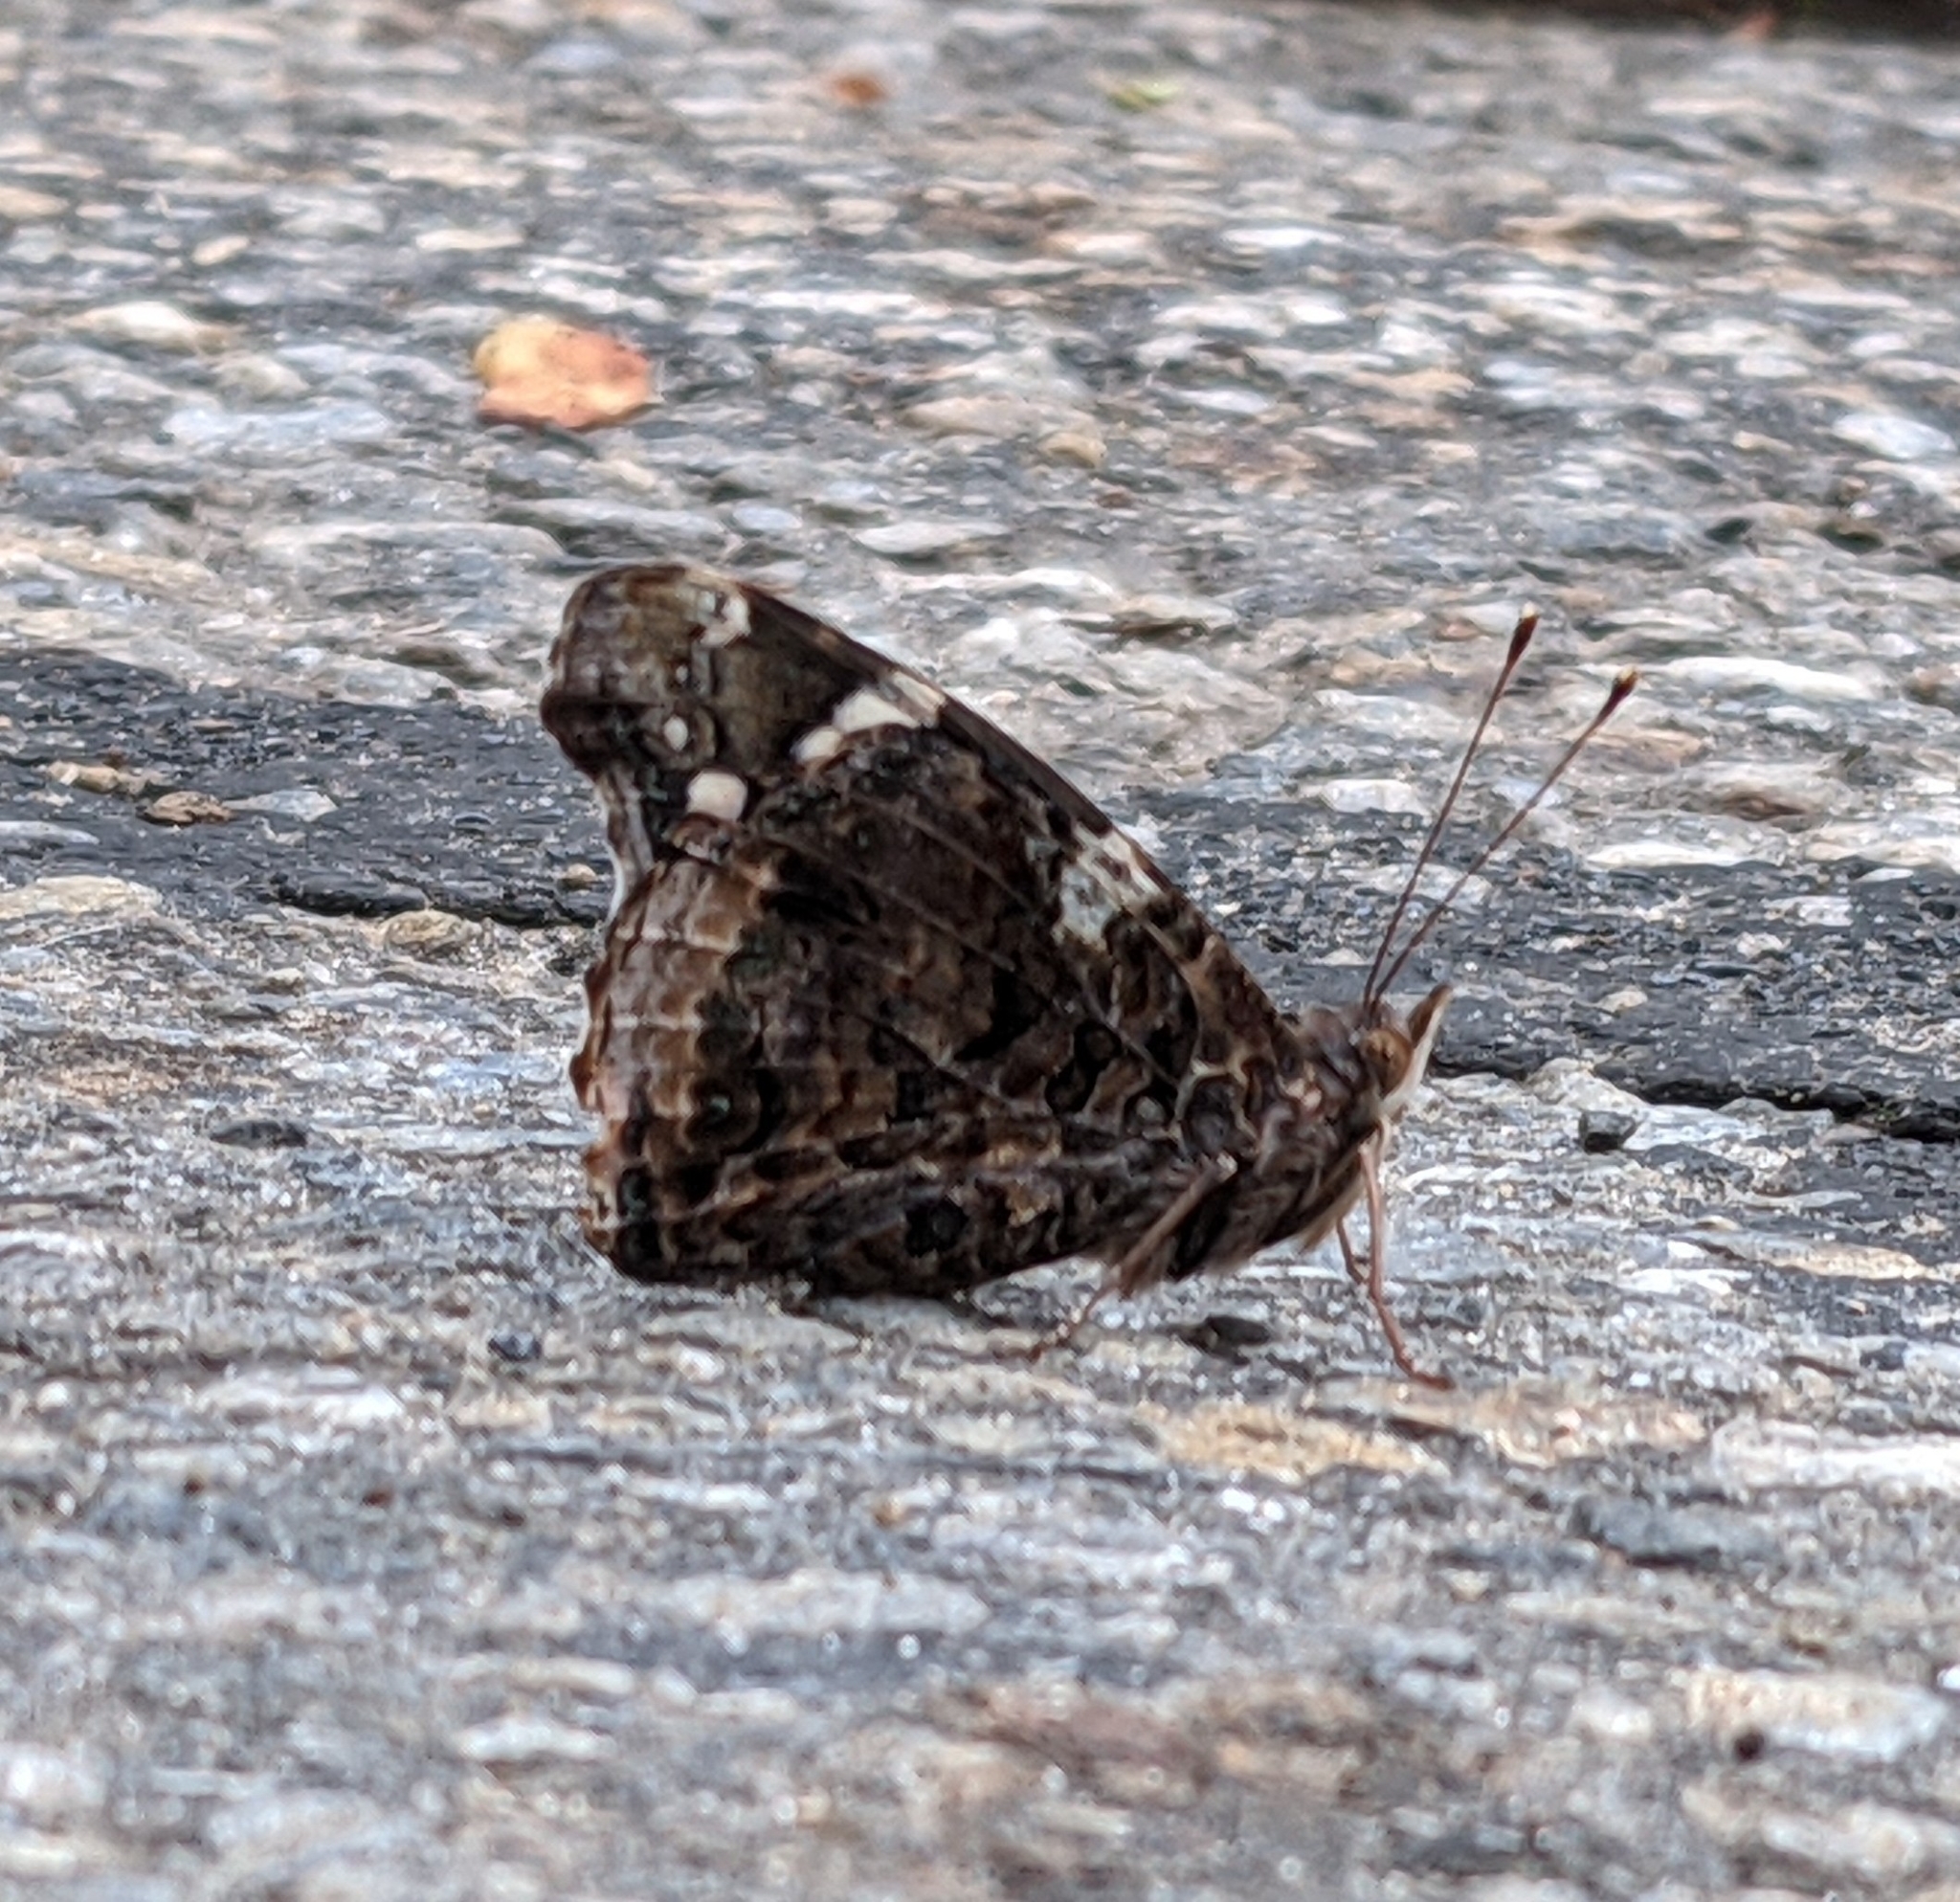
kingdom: Animalia
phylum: Arthropoda
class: Insecta
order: Lepidoptera
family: Nymphalidae
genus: Vanessa
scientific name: Vanessa atalanta
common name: Red admiral
